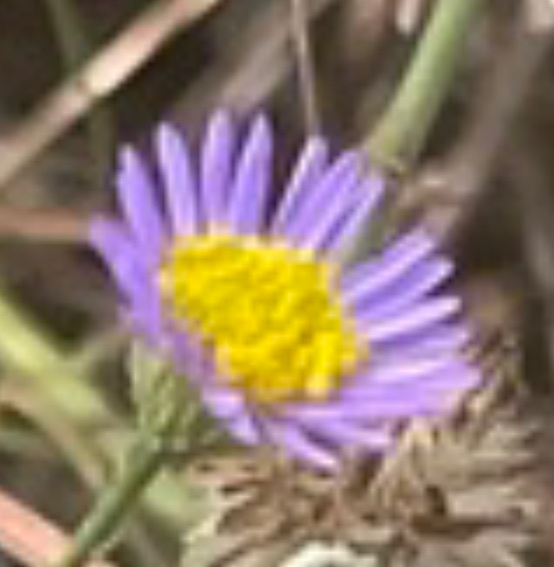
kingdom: Plantae
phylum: Tracheophyta
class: Magnoliopsida
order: Asterales
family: Asteraceae
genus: Erigeron
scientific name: Erigeron foliosus
